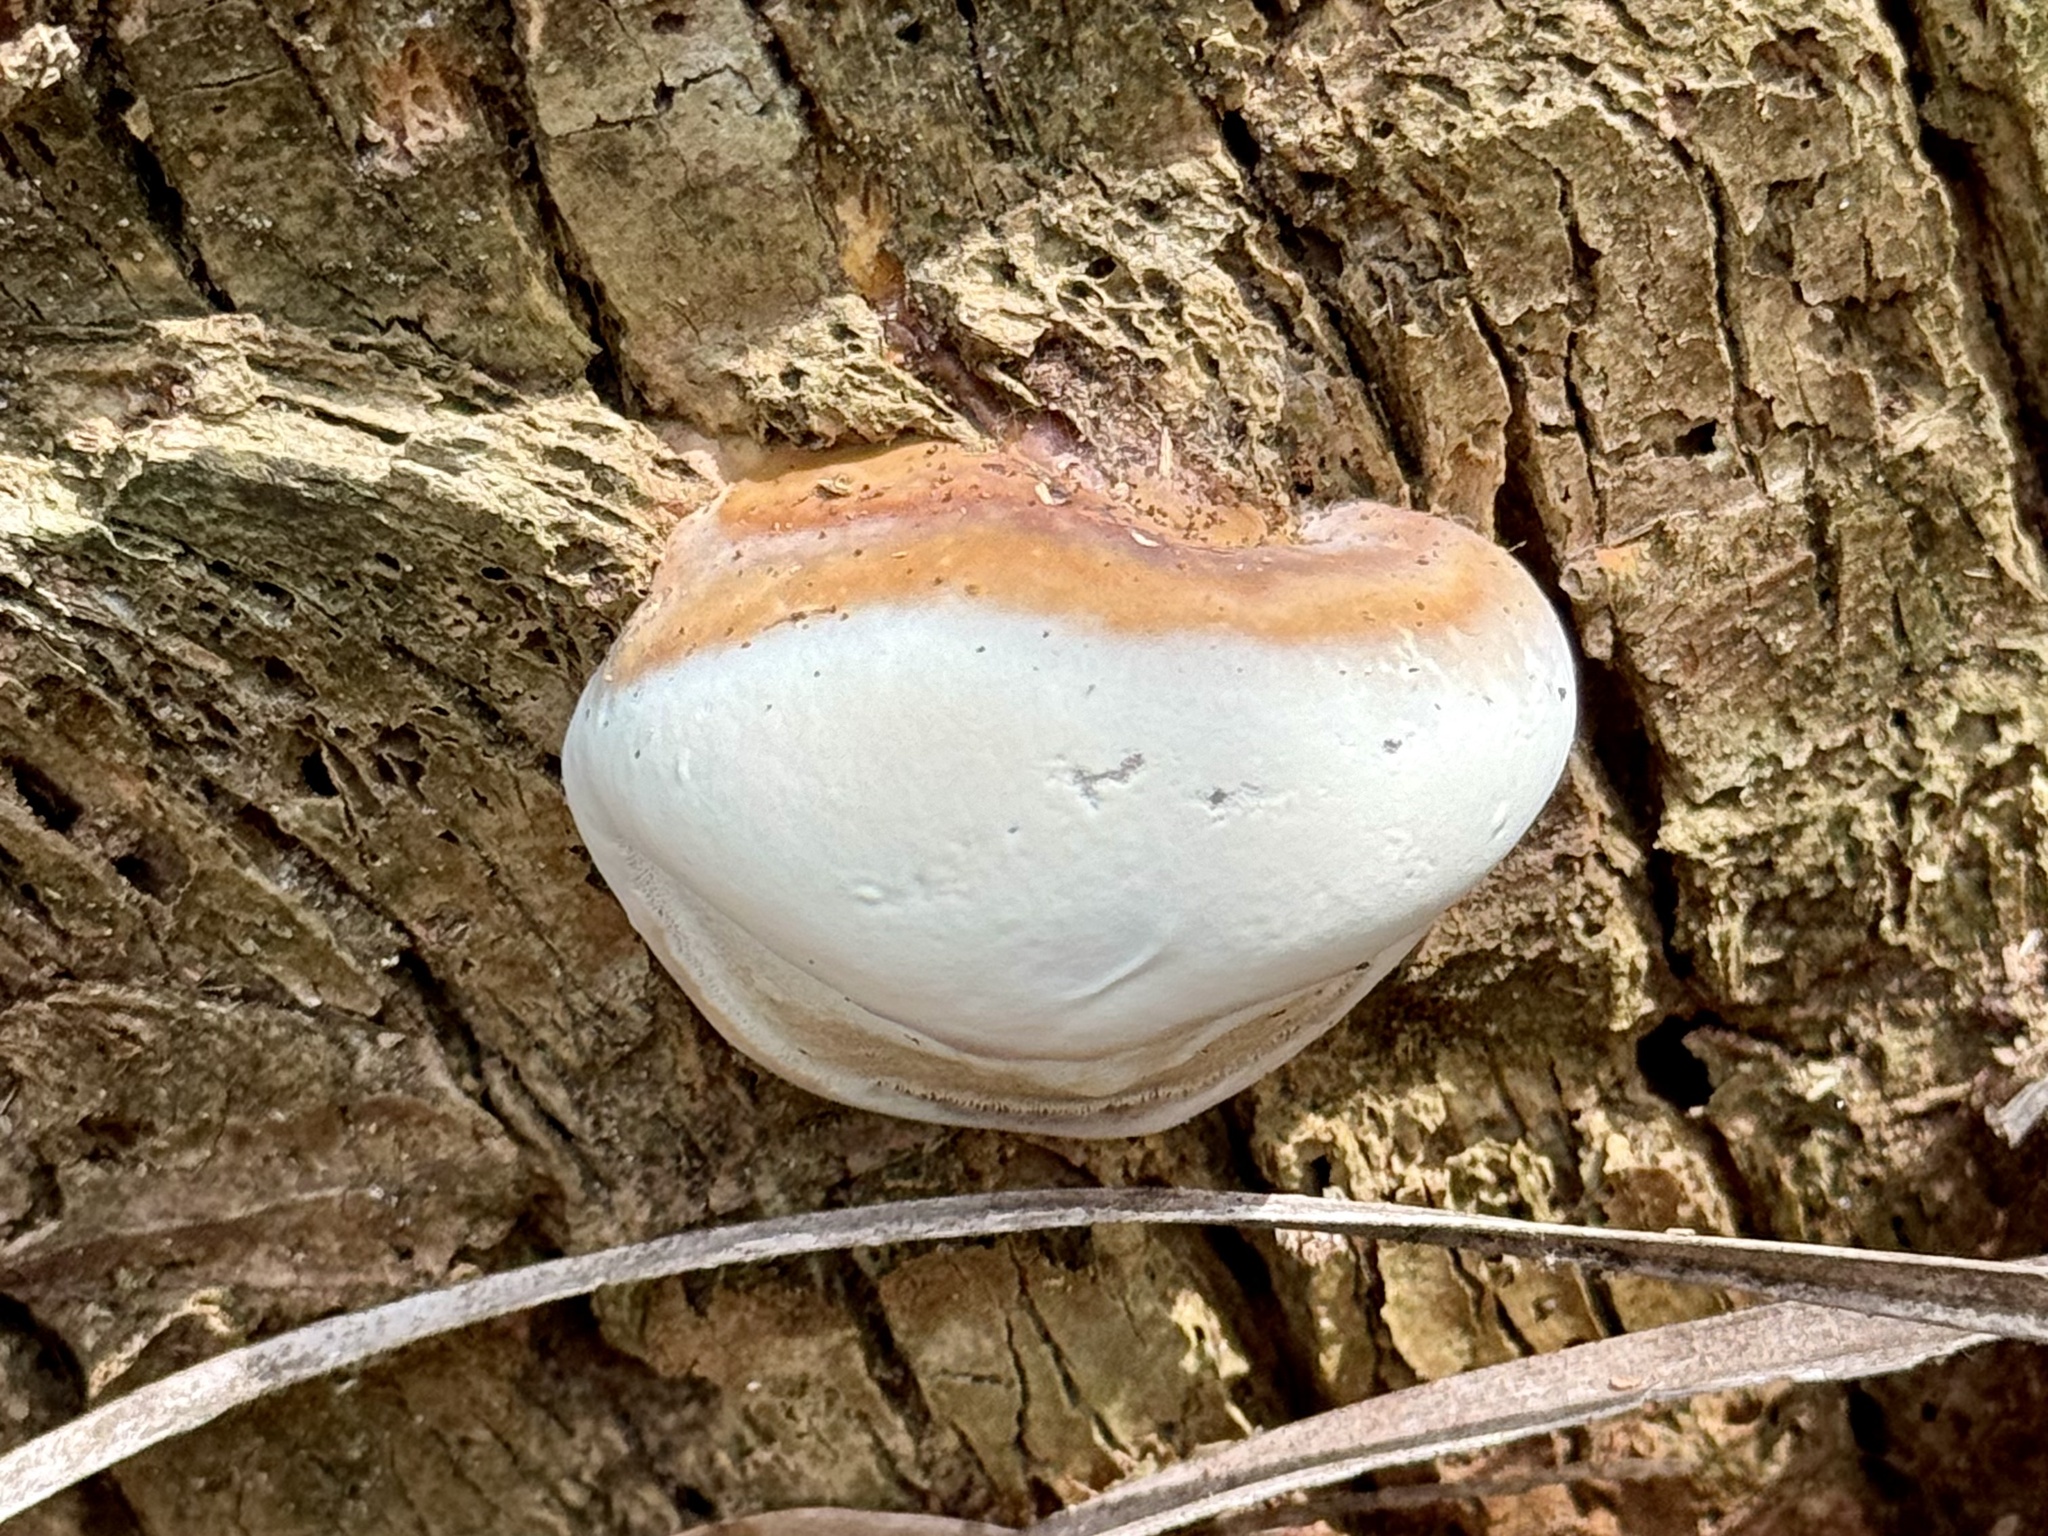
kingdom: Fungi
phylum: Basidiomycota
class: Agaricomycetes
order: Polyporales
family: Polyporaceae
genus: Ganoderma
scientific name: Ganoderma zonatum
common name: Ganoderma butt rot
